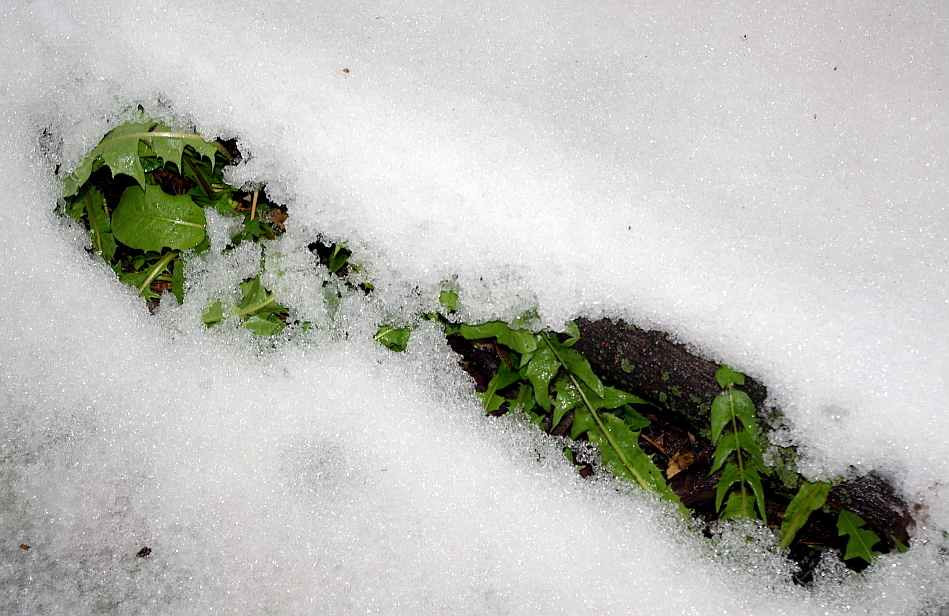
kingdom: Plantae
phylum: Tracheophyta
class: Magnoliopsida
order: Asterales
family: Asteraceae
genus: Taraxacum
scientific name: Taraxacum officinale
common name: Common dandelion
